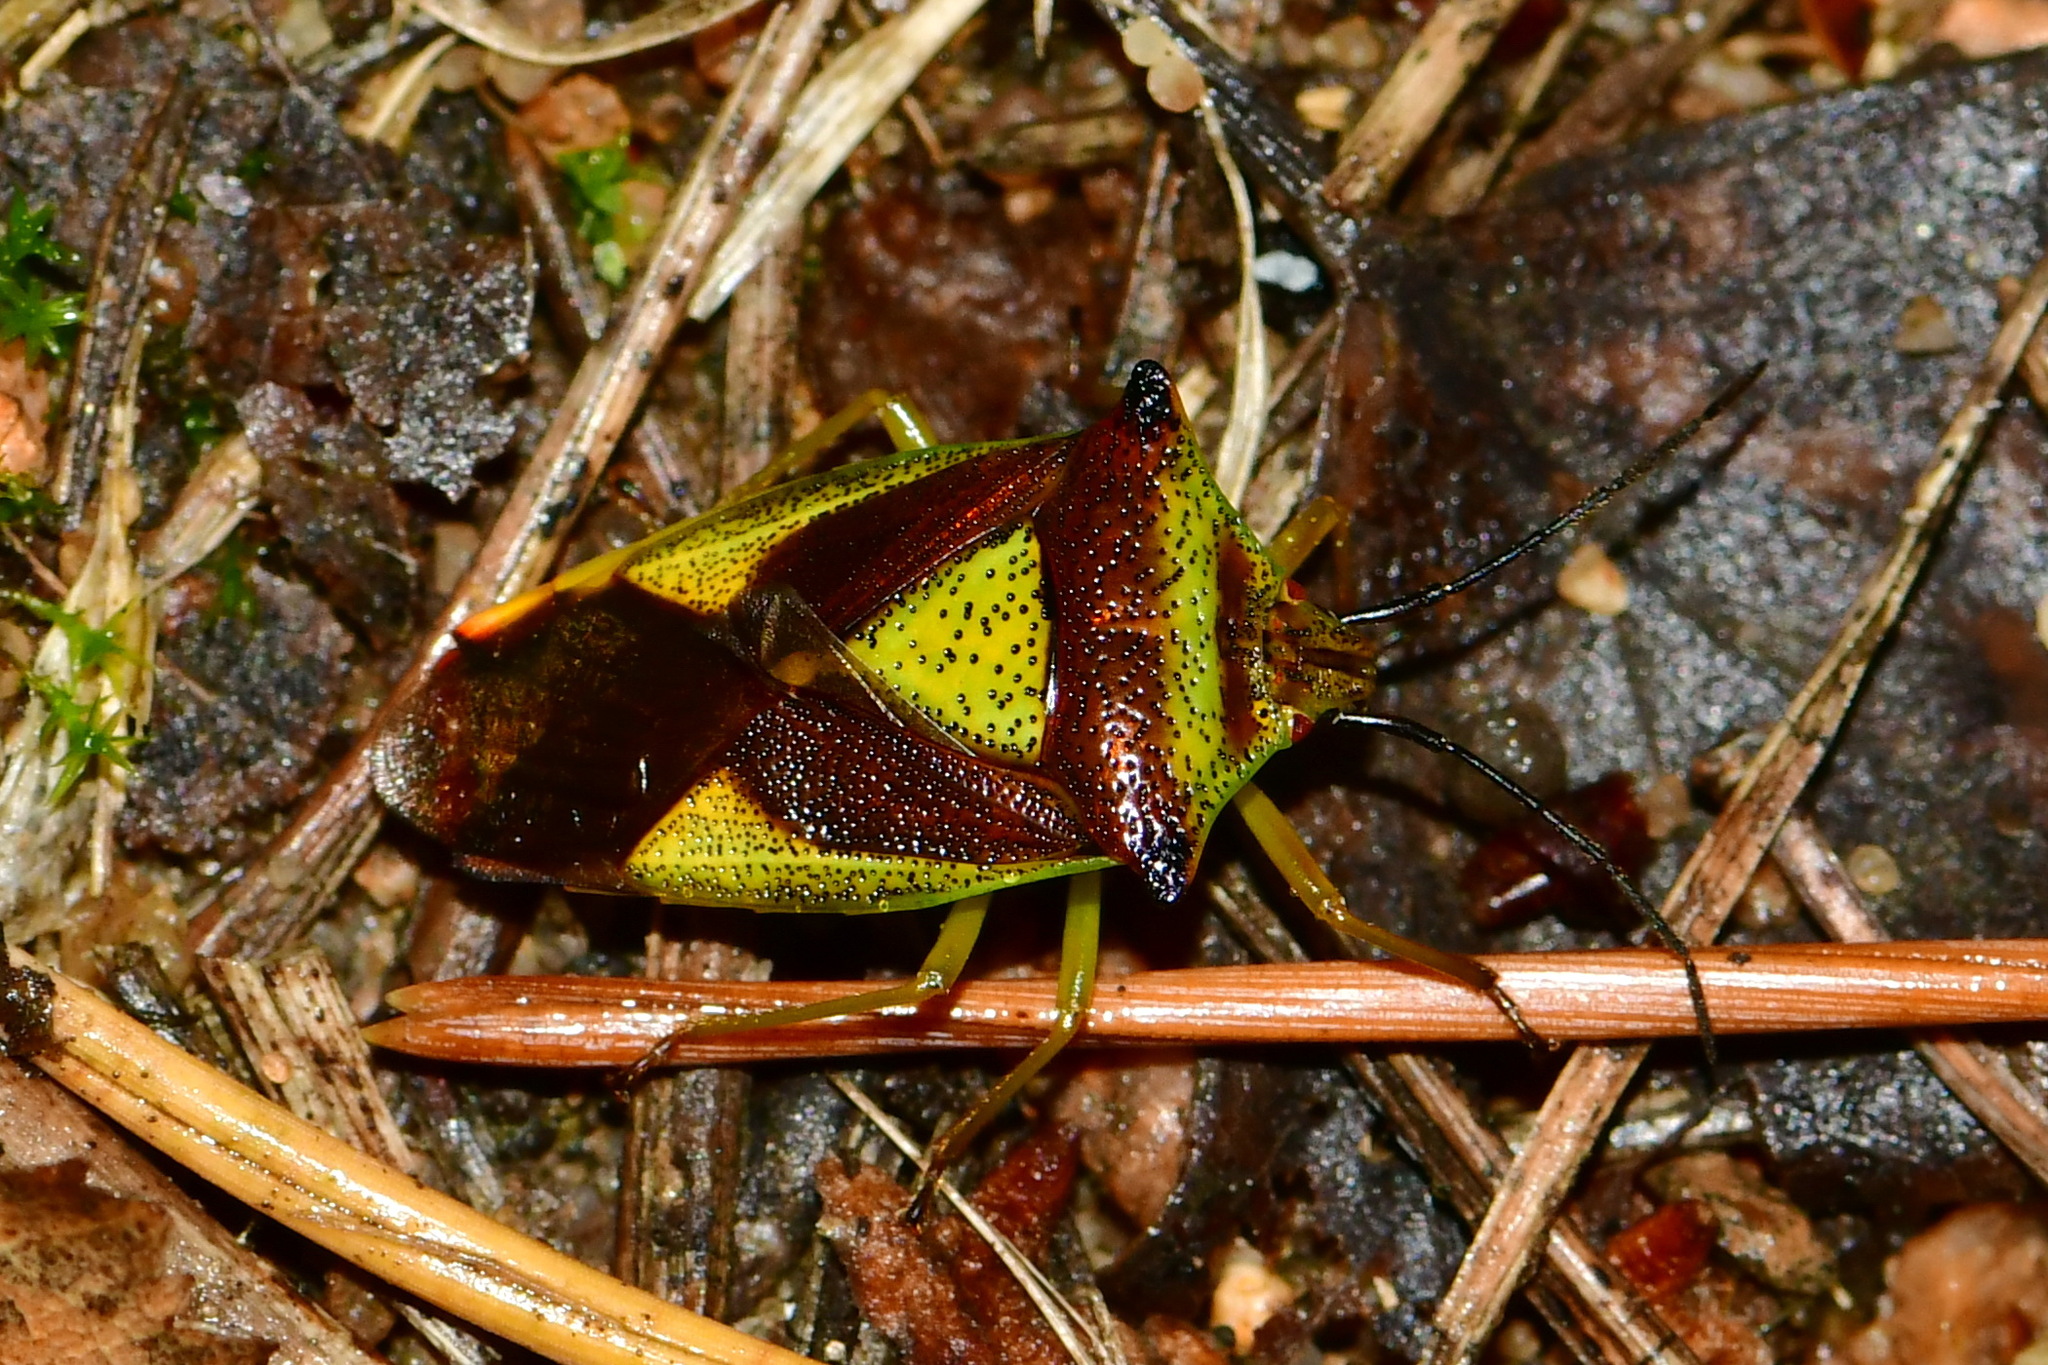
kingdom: Animalia
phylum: Arthropoda
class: Insecta
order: Hemiptera
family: Acanthosomatidae
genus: Acanthosoma
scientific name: Acanthosoma haemorrhoidale
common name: Hawthorn shieldbug
